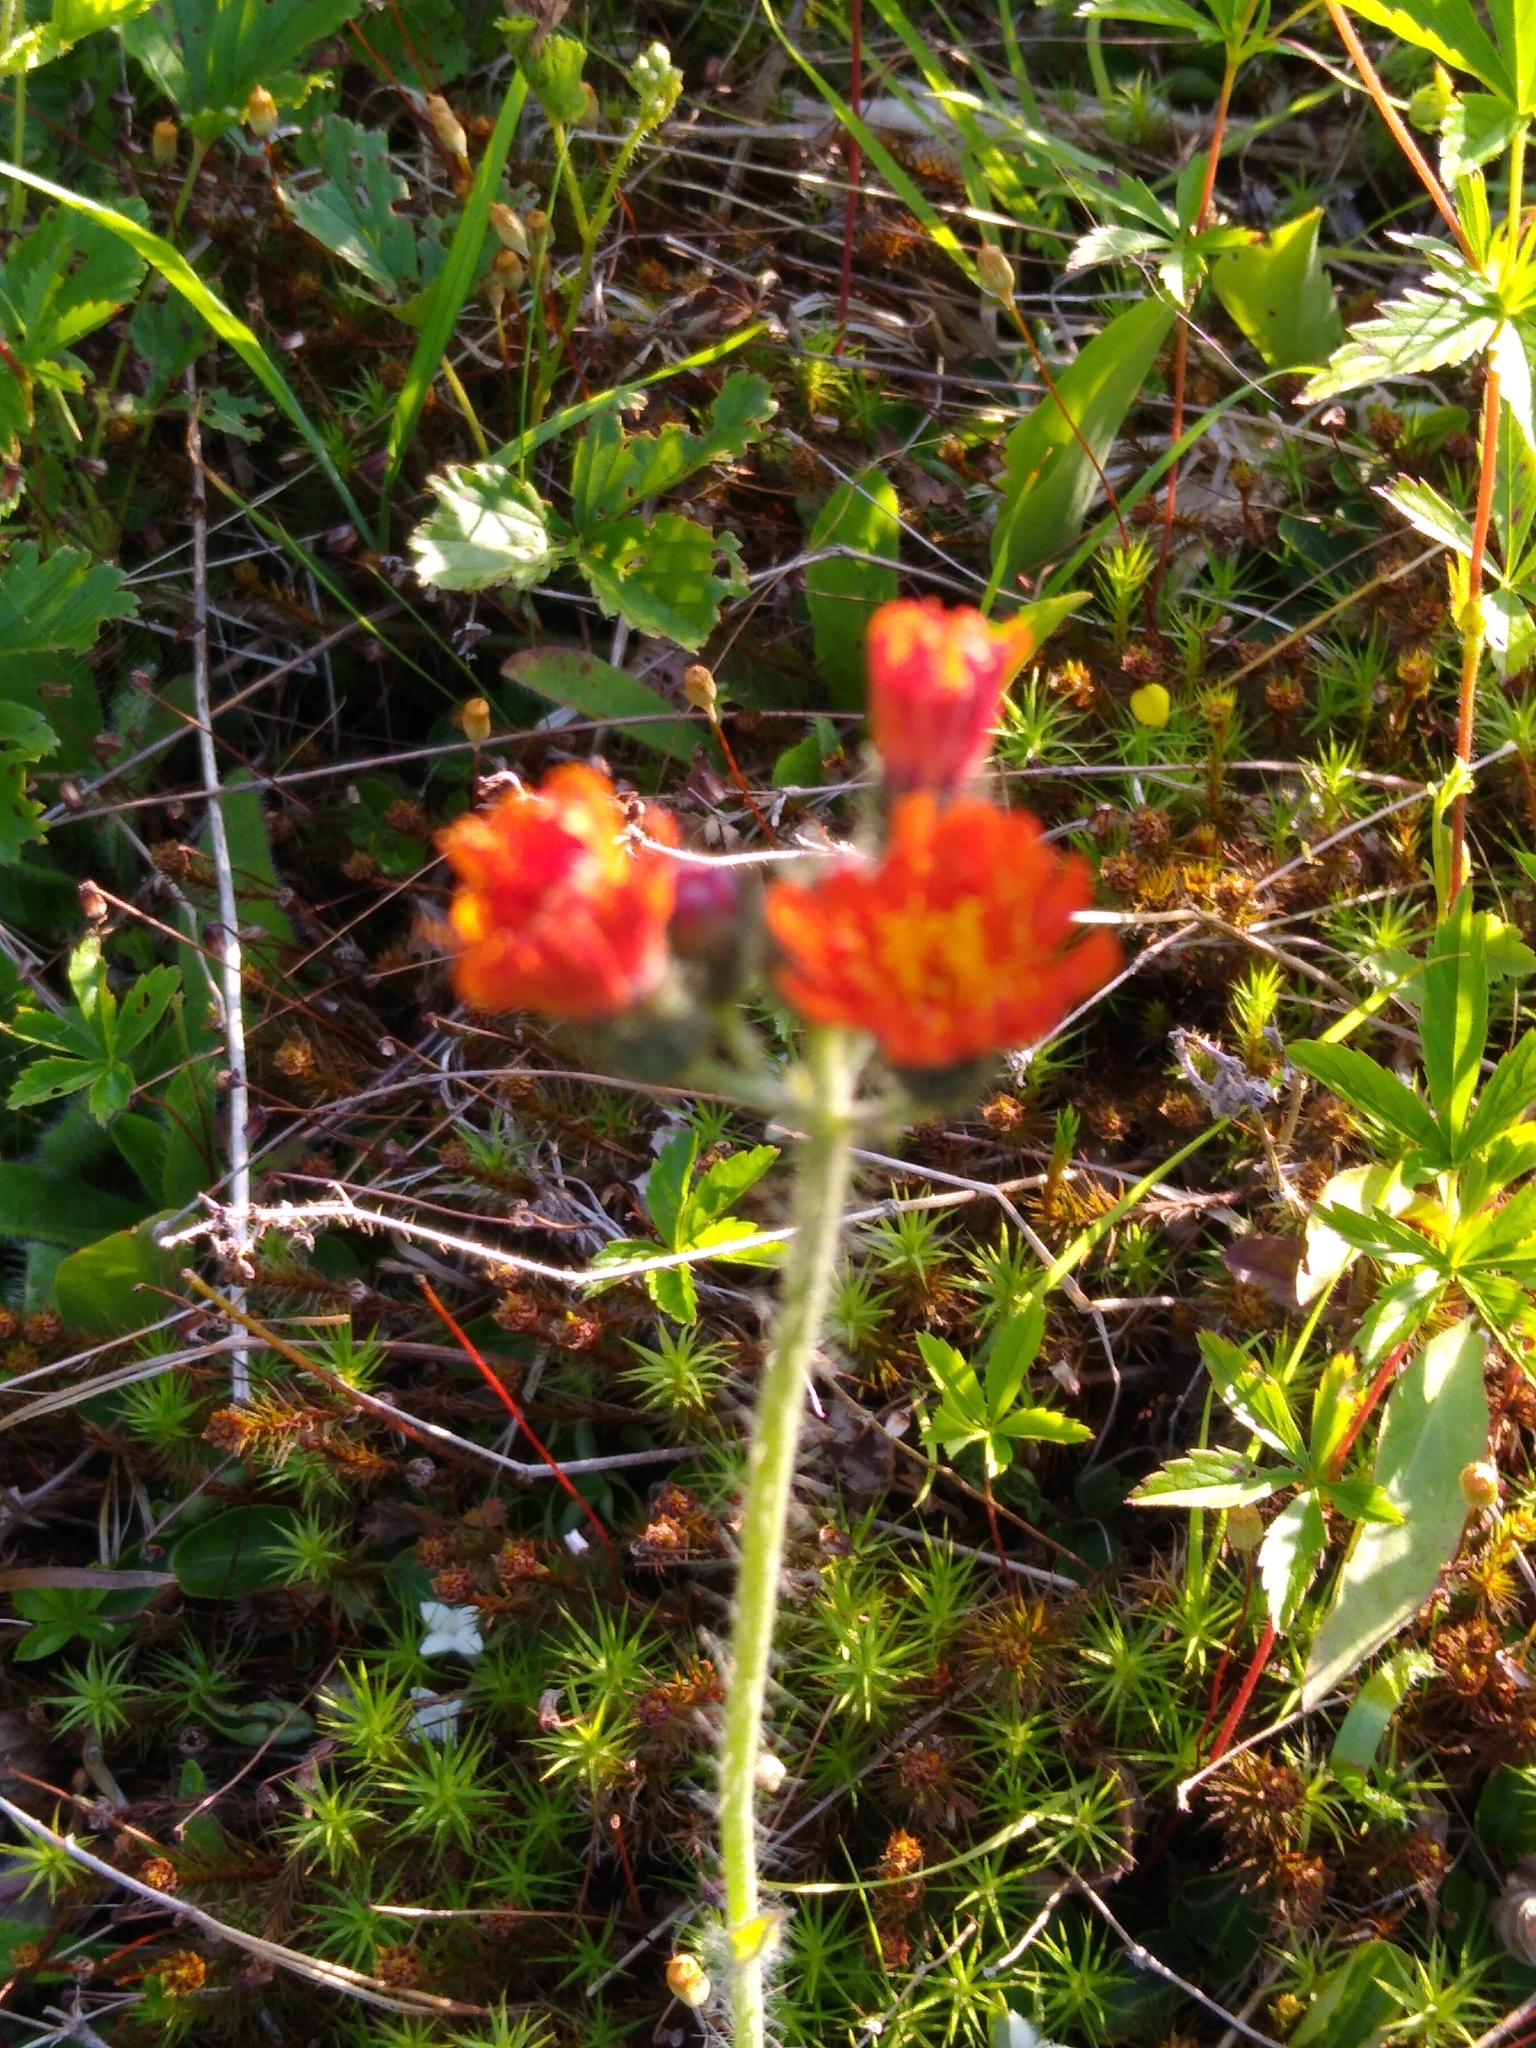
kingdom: Plantae
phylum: Tracheophyta
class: Magnoliopsida
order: Asterales
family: Asteraceae
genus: Pilosella
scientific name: Pilosella aurantiaca
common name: Fox-and-cubs
